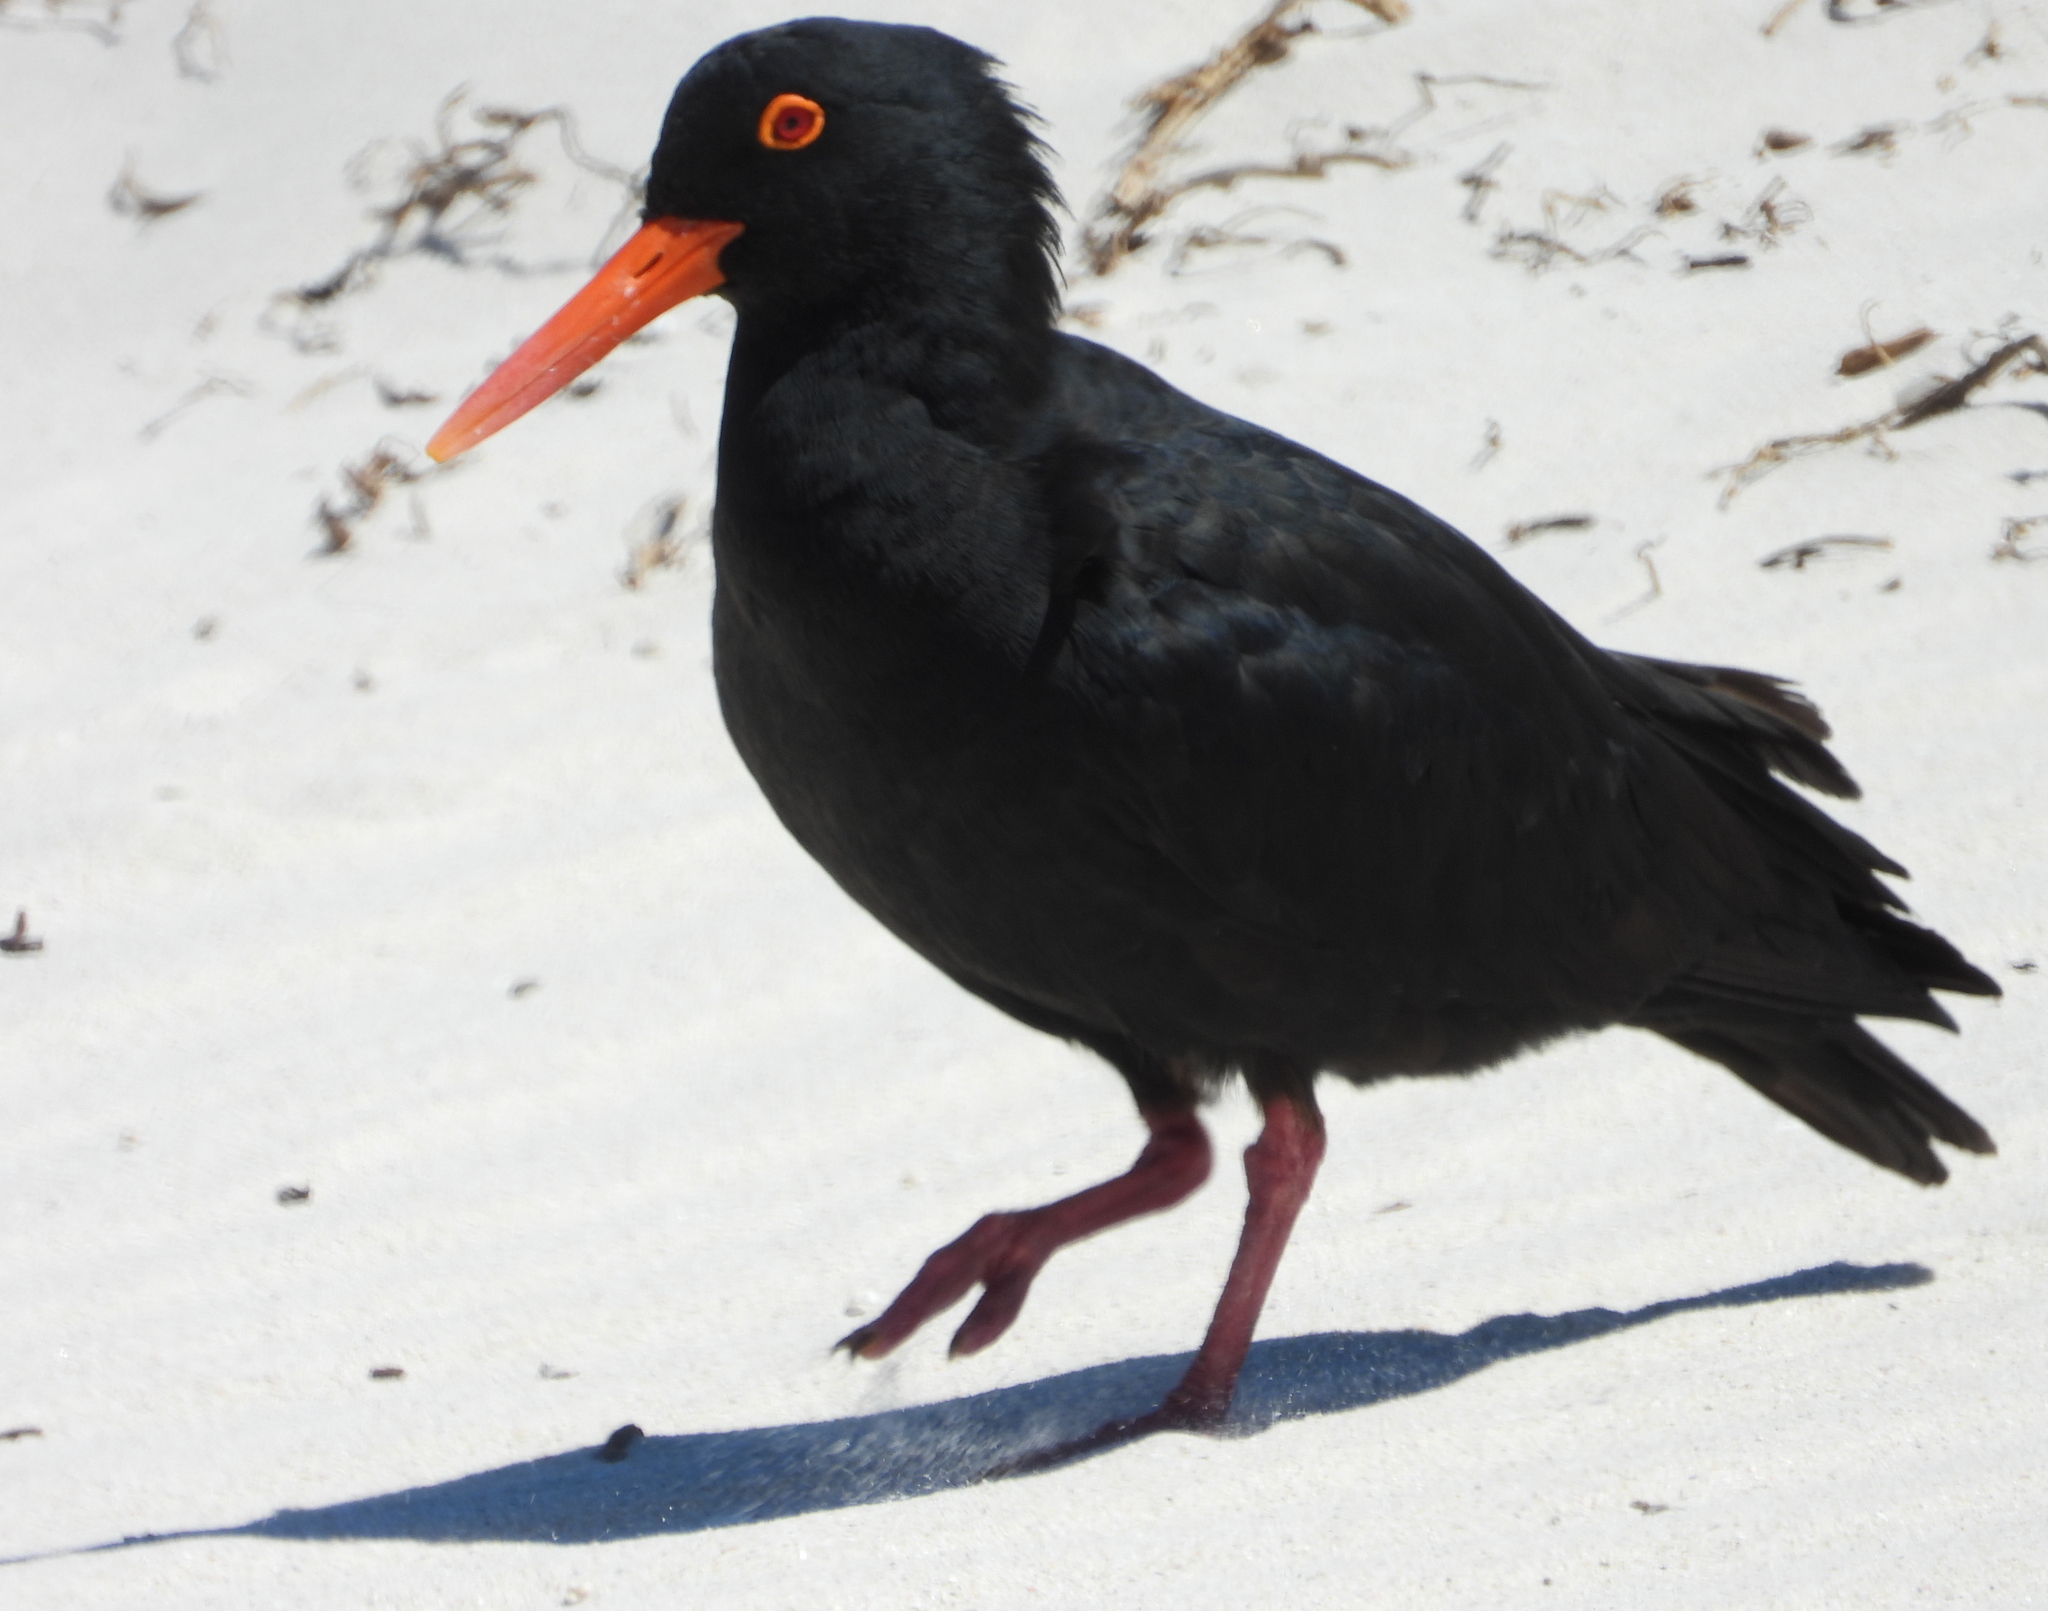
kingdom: Animalia
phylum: Chordata
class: Aves
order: Charadriiformes
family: Haematopodidae
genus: Haematopus
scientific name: Haematopus moquini
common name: African oystercatcher
